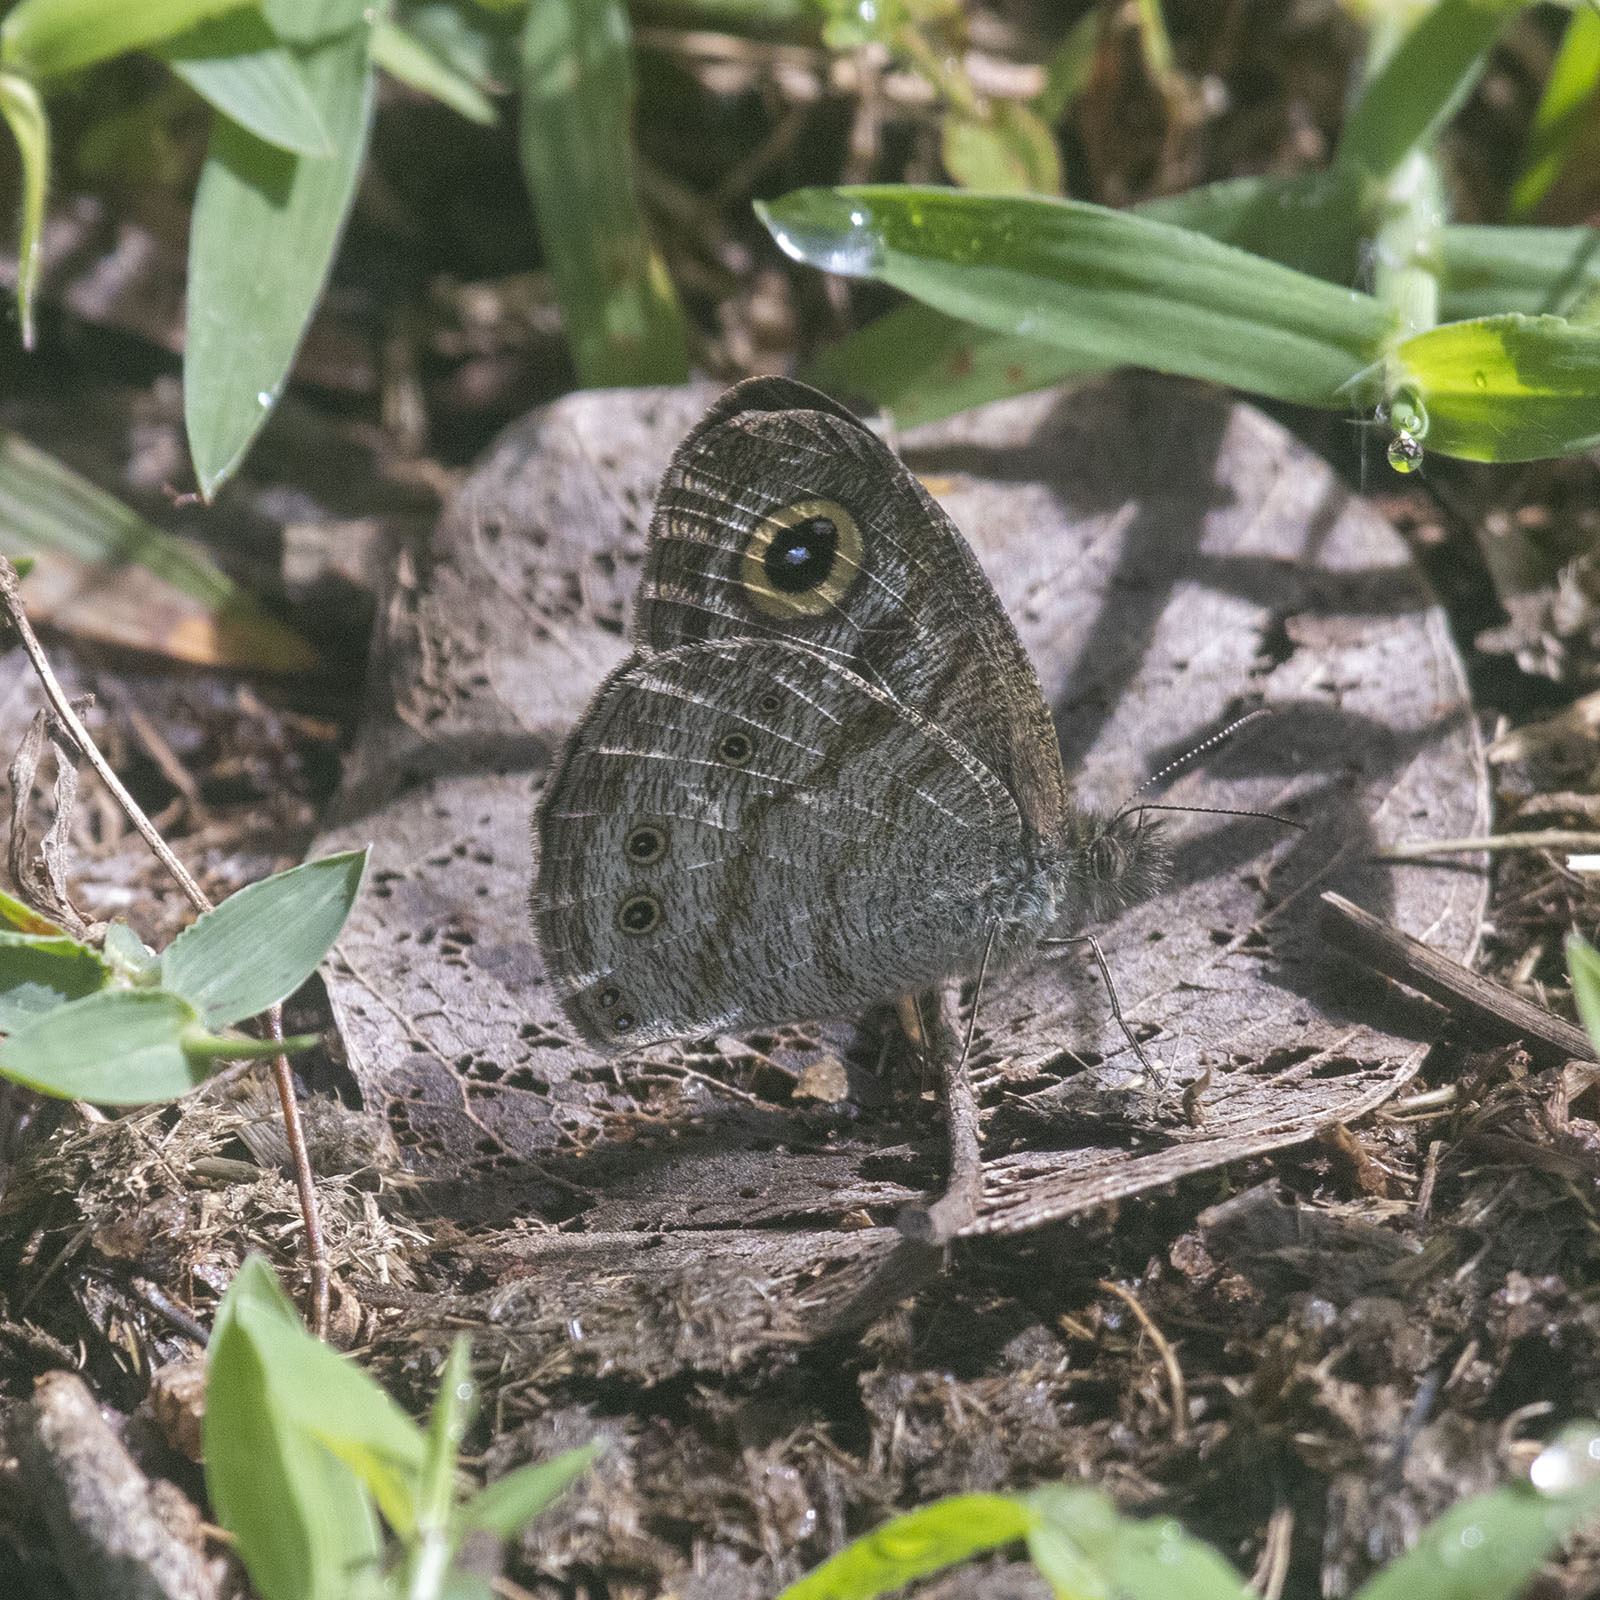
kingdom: Animalia
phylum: Arthropoda
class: Insecta
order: Lepidoptera
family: Nymphalidae
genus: Ypthima
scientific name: Ypthima baldus
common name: Common five-ring
